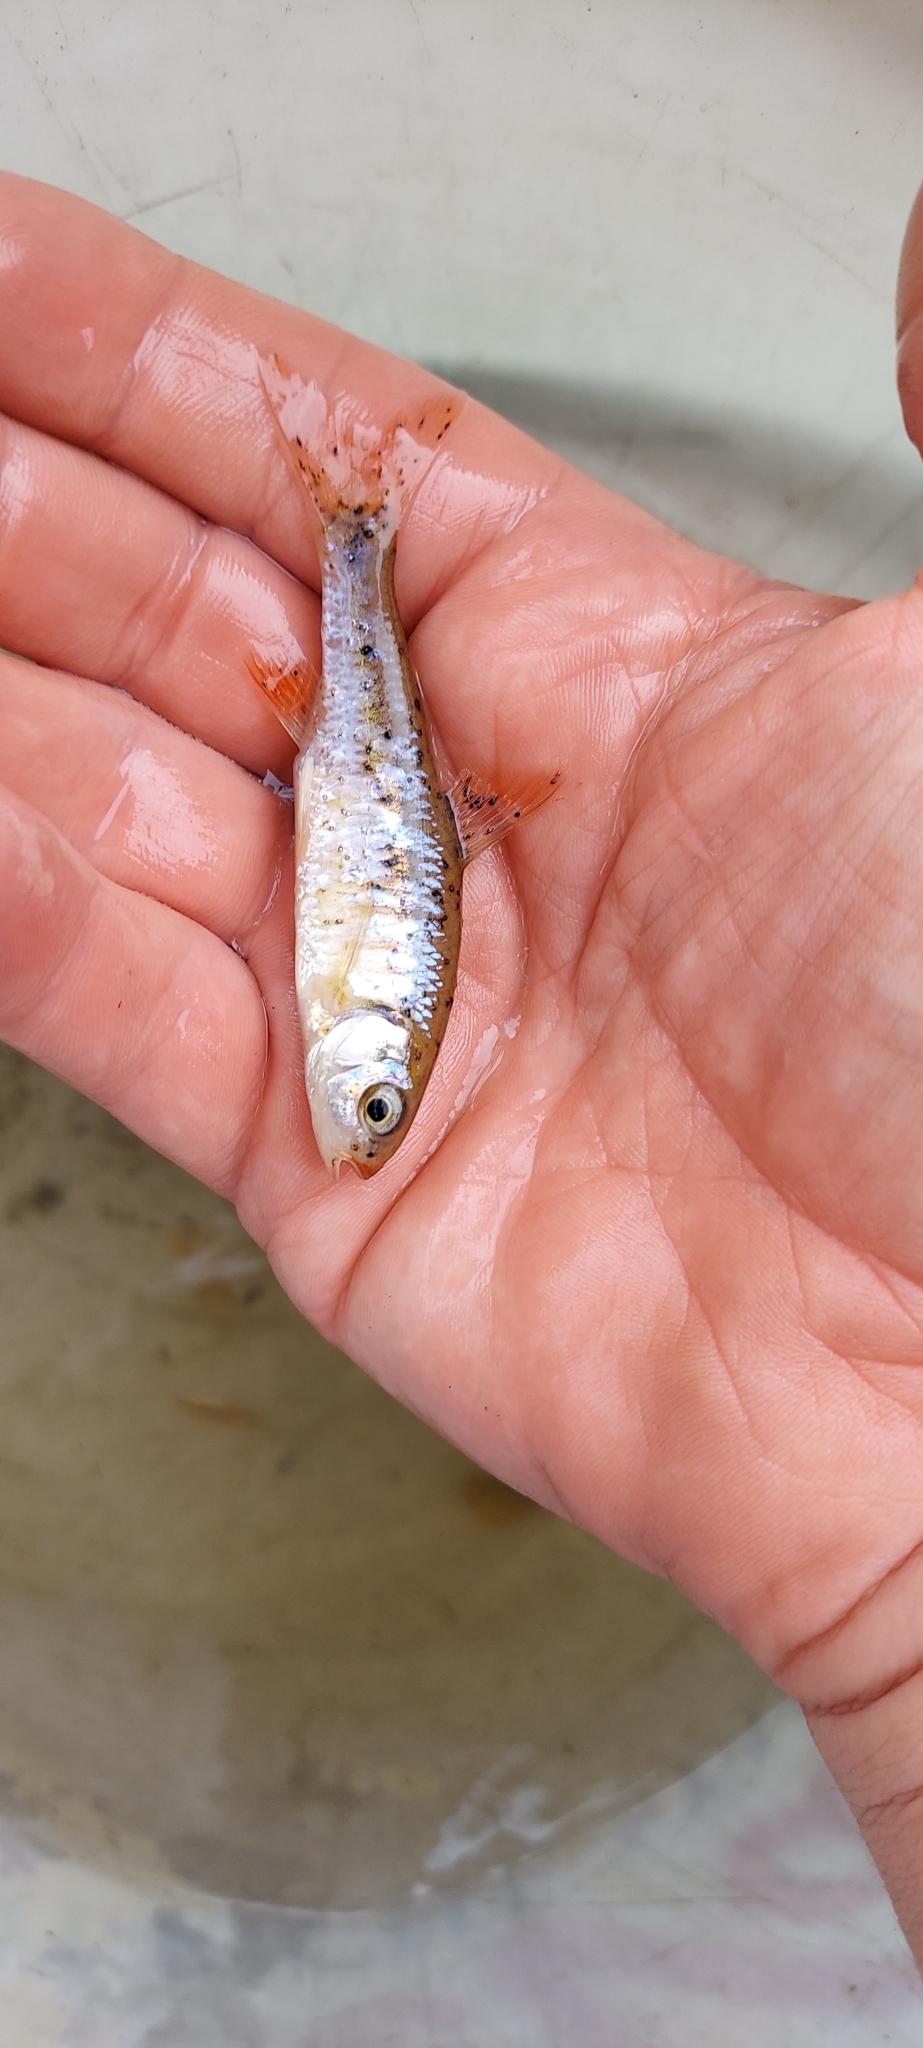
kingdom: Animalia
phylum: Chordata
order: Cypriniformes
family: Cyprinidae
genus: Luxilus
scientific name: Luxilus cerasinus
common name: Crescent shiner
